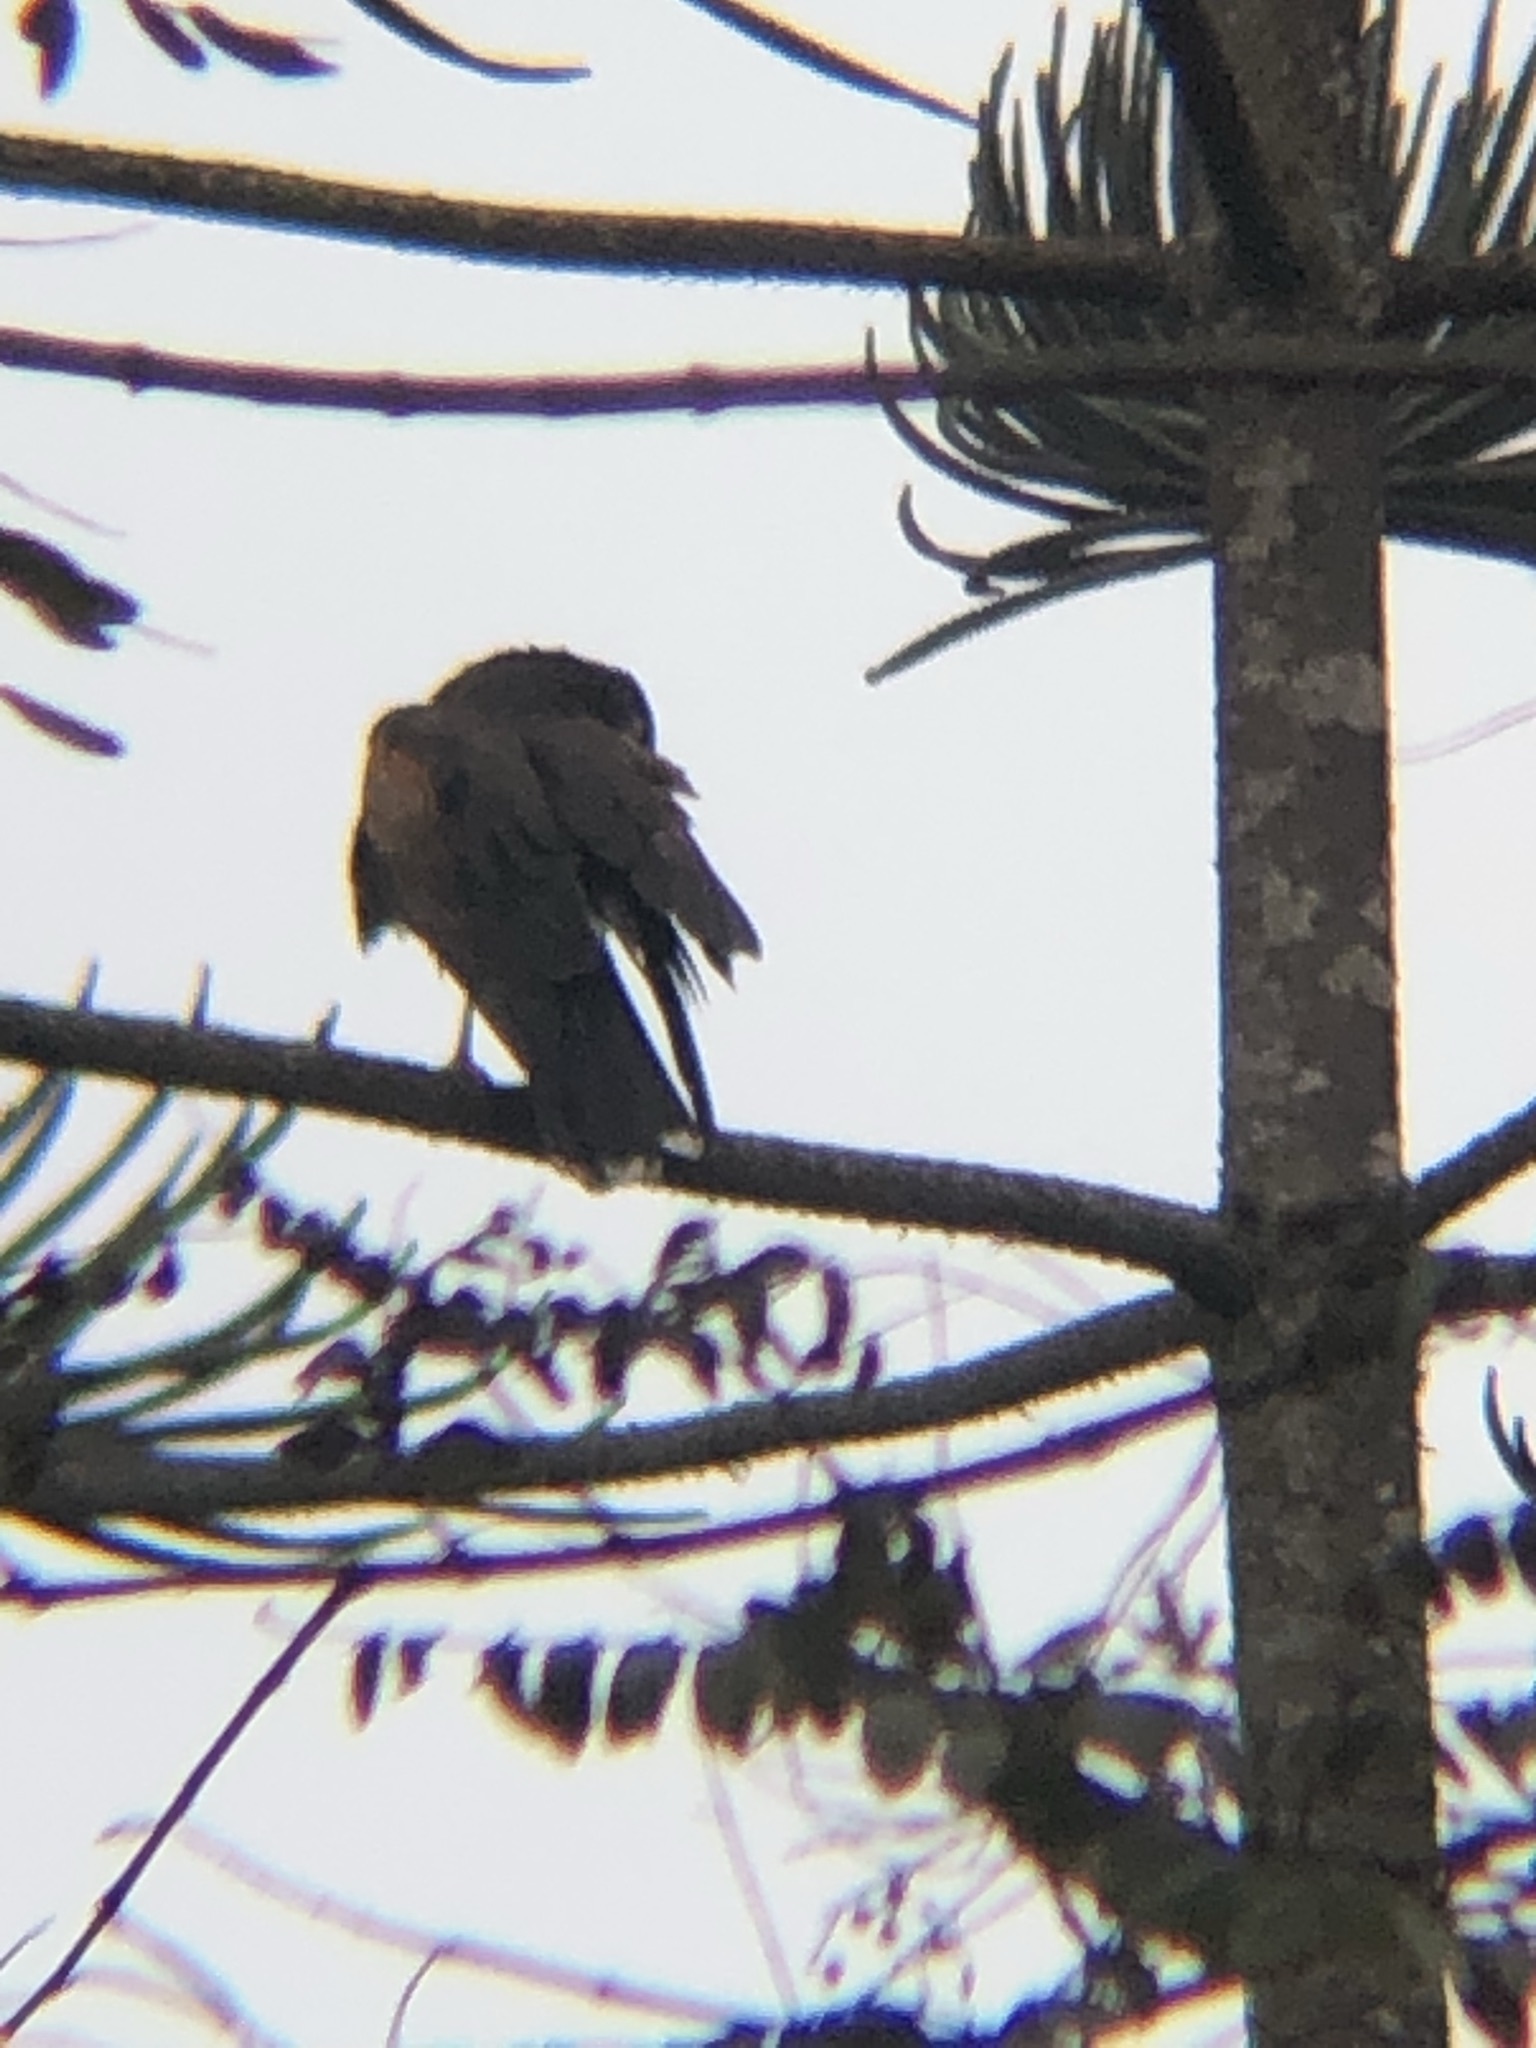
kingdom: Animalia
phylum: Chordata
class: Aves
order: Accipitriformes
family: Accipitridae
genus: Parabuteo
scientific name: Parabuteo unicinctus
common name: Harris's hawk
